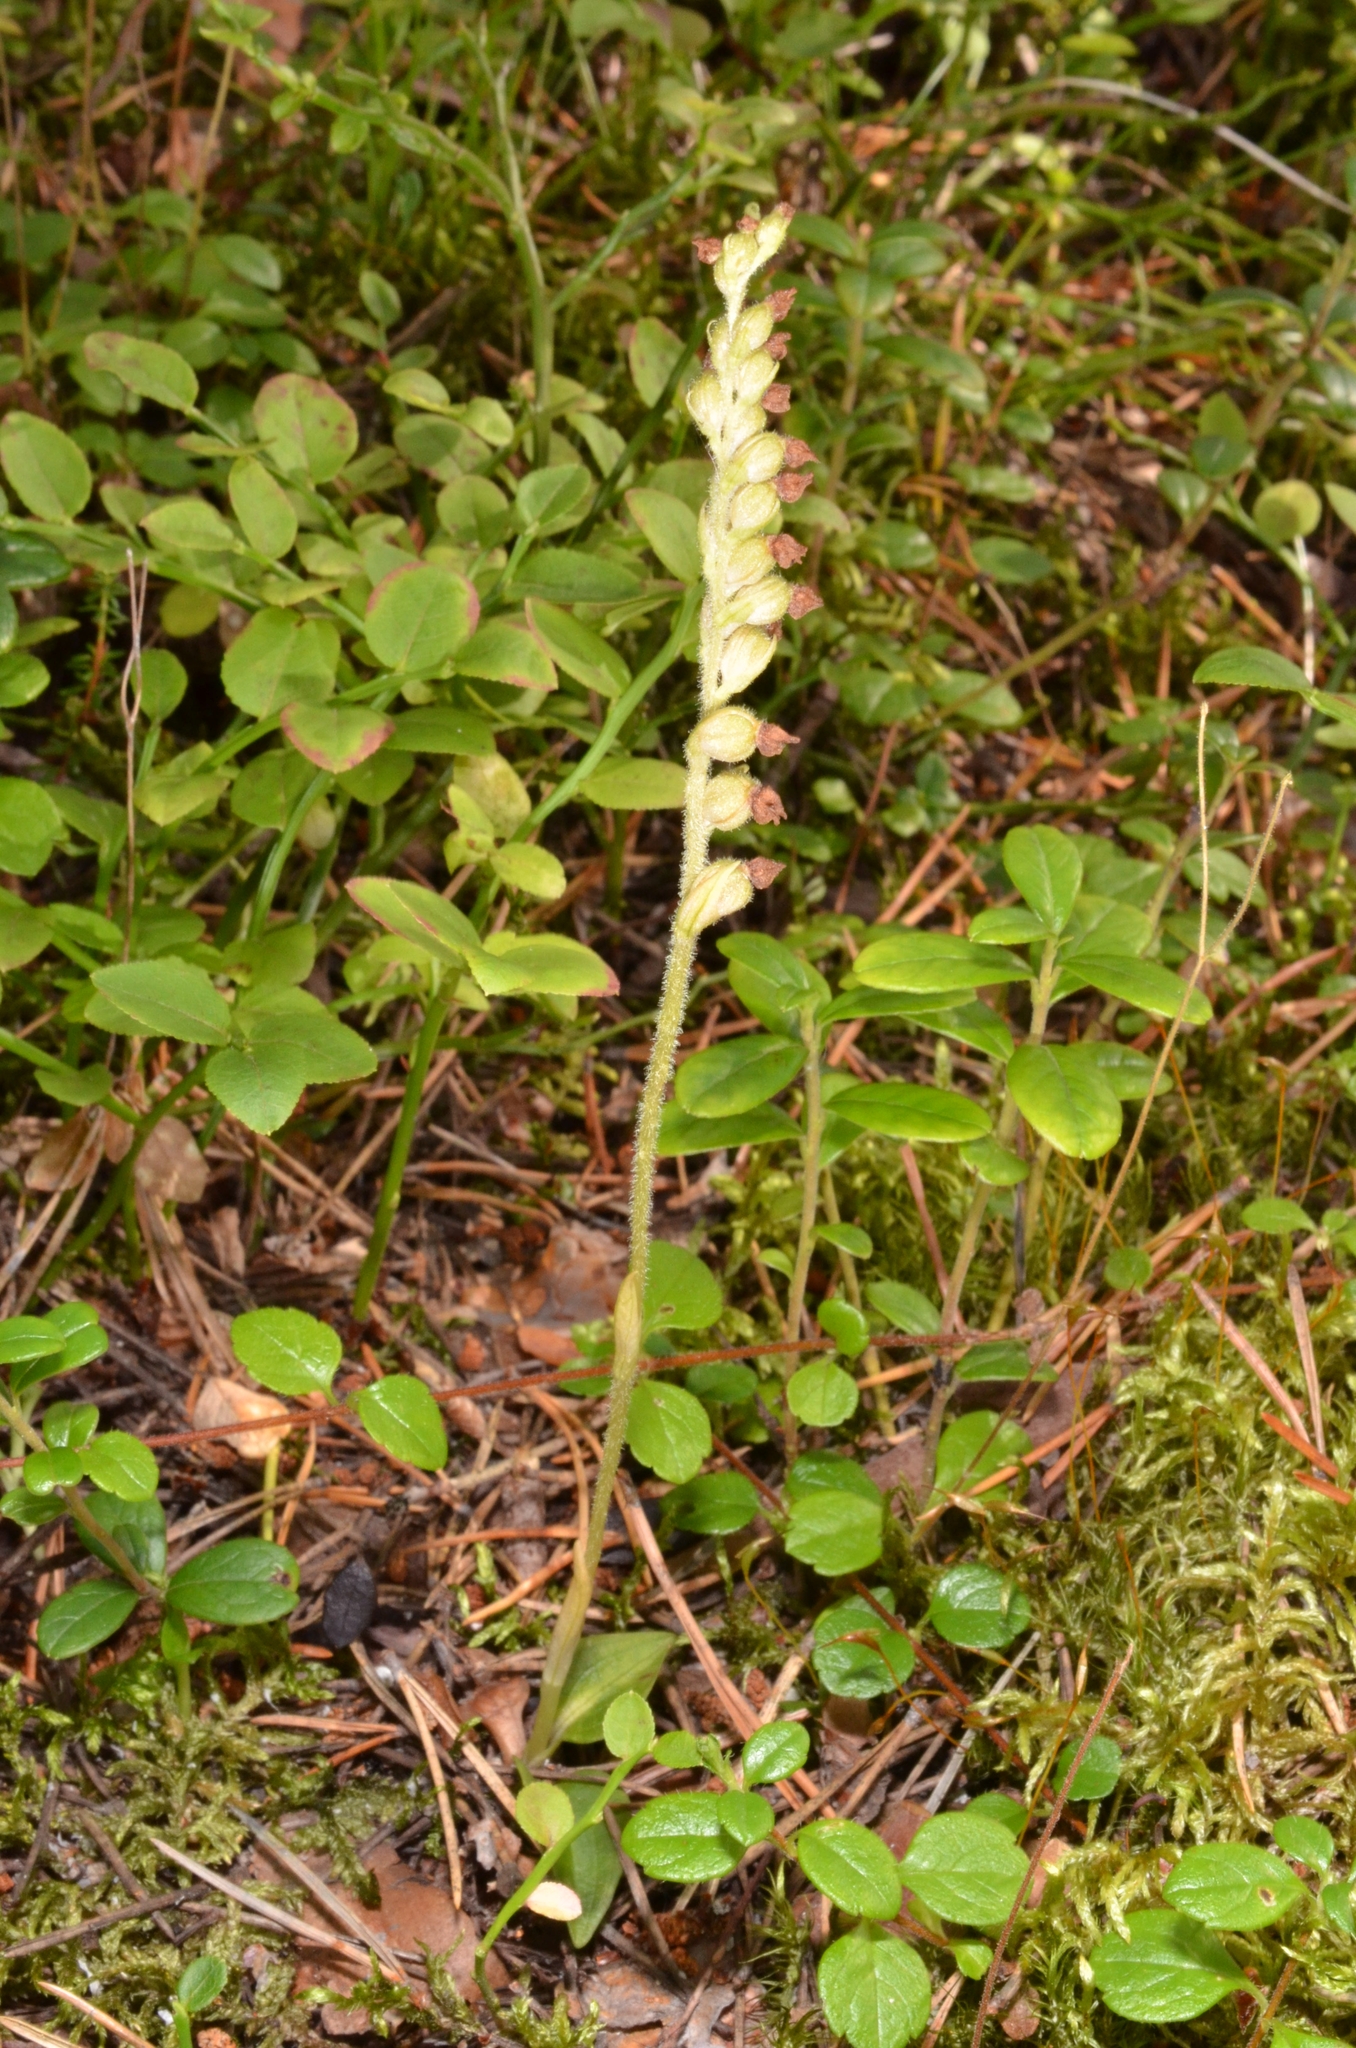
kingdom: Plantae
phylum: Tracheophyta
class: Liliopsida
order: Asparagales
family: Orchidaceae
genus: Goodyera
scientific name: Goodyera repens
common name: Creeping lady's-tresses
